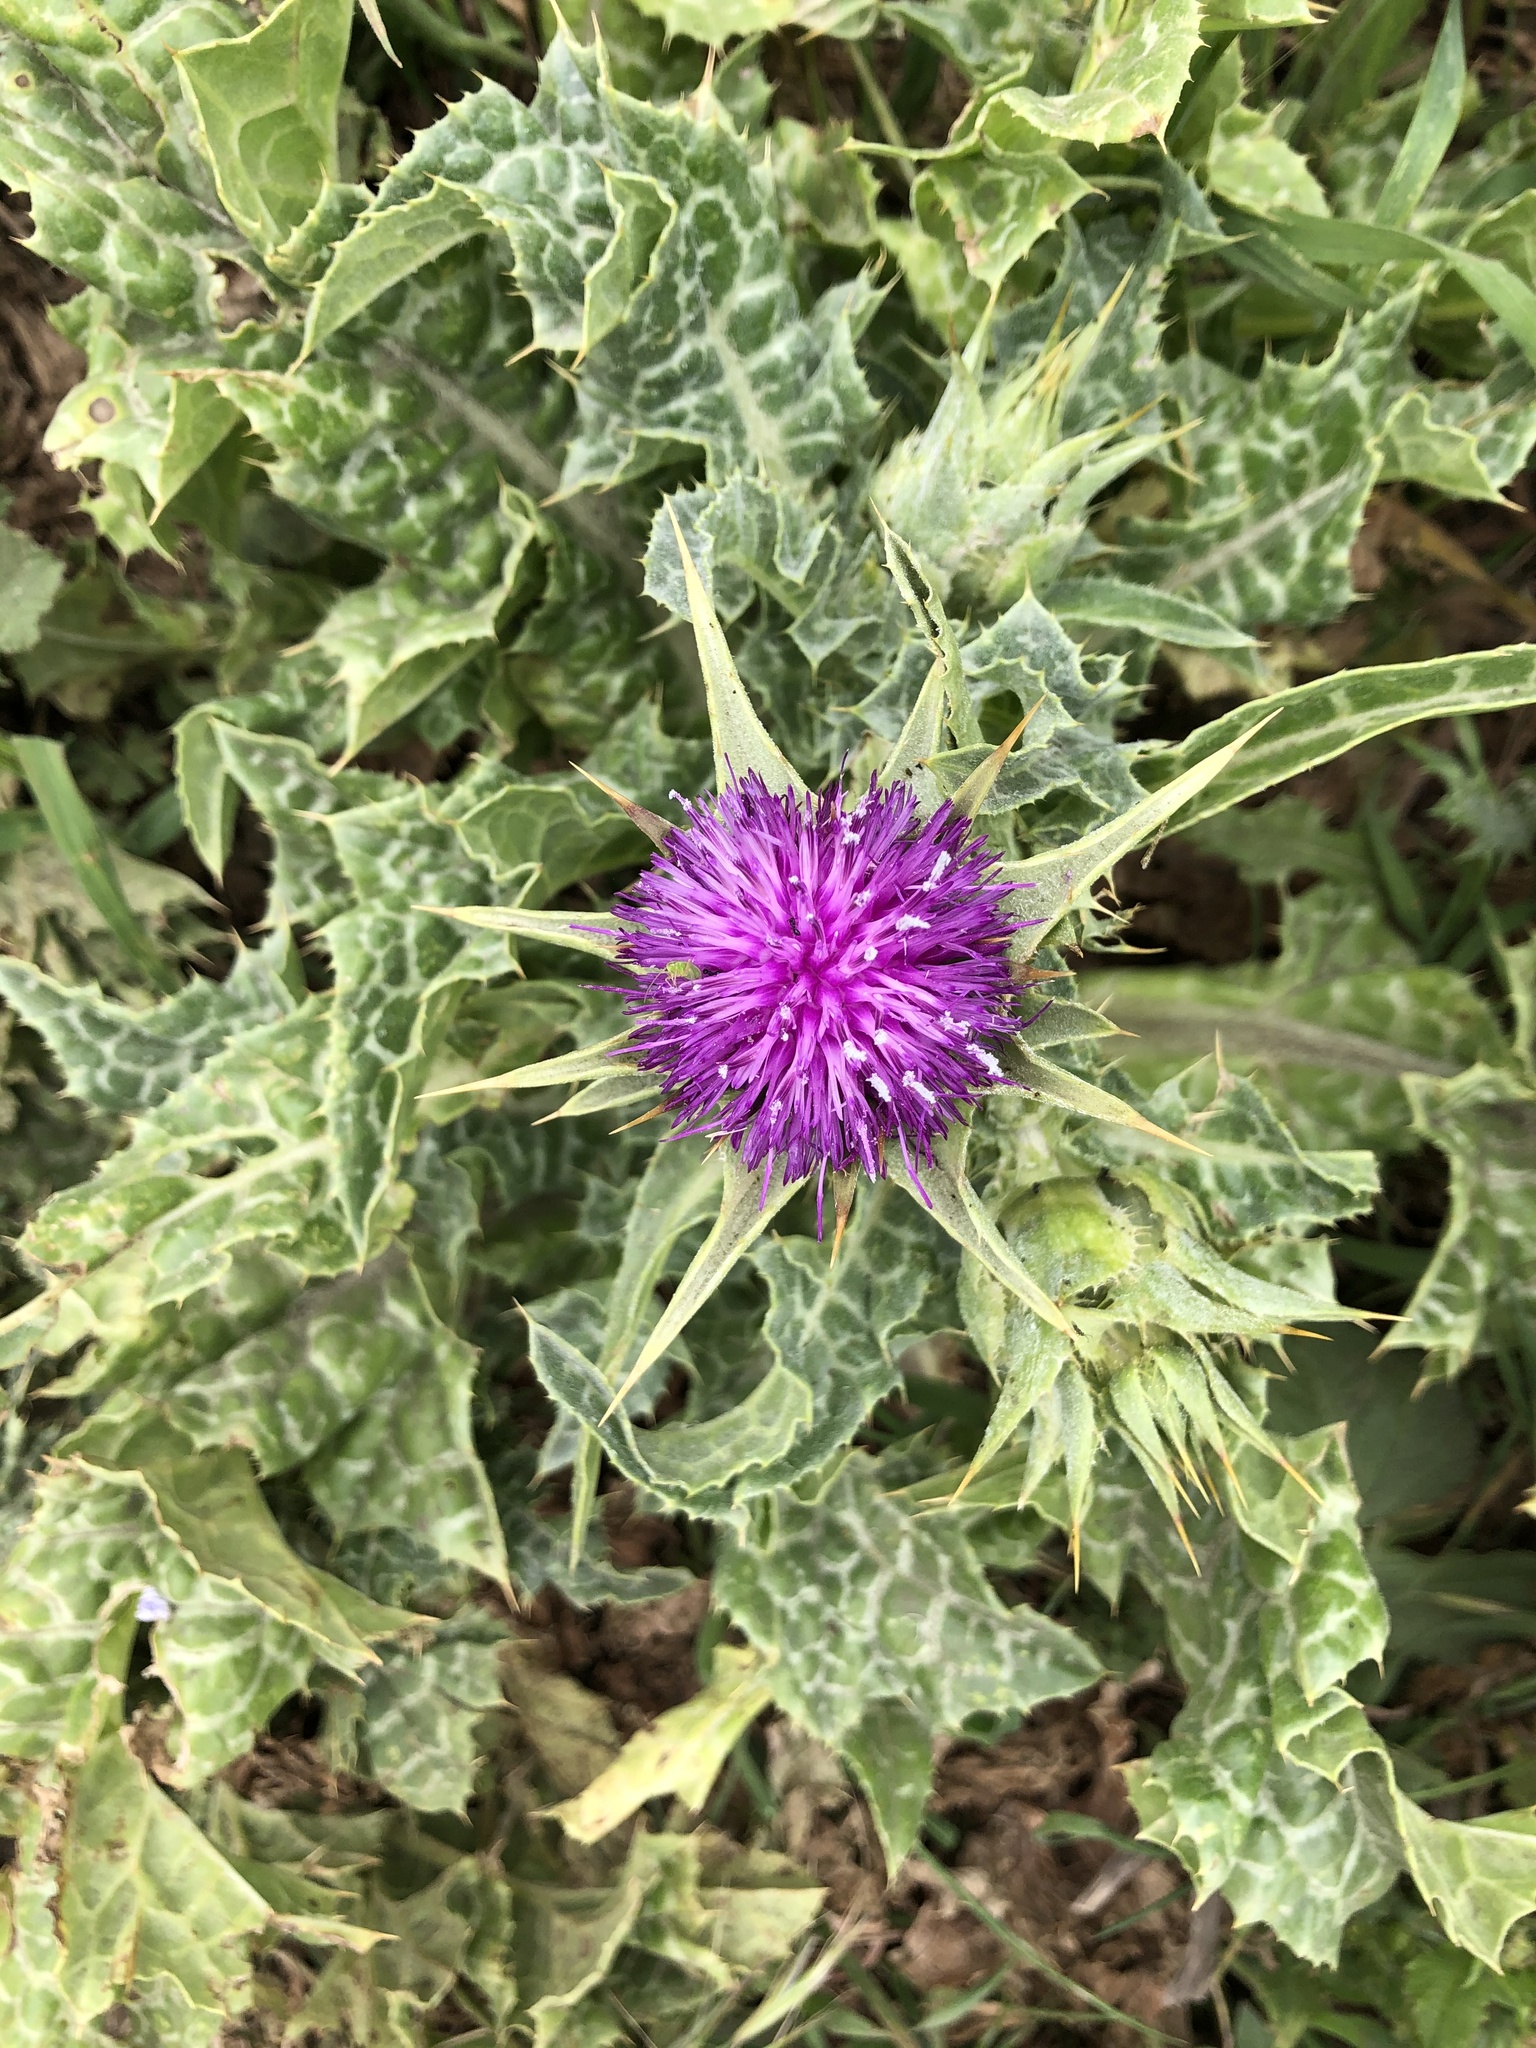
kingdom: Plantae
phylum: Tracheophyta
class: Magnoliopsida
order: Asterales
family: Asteraceae
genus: Silybum
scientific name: Silybum marianum
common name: Milk thistle
